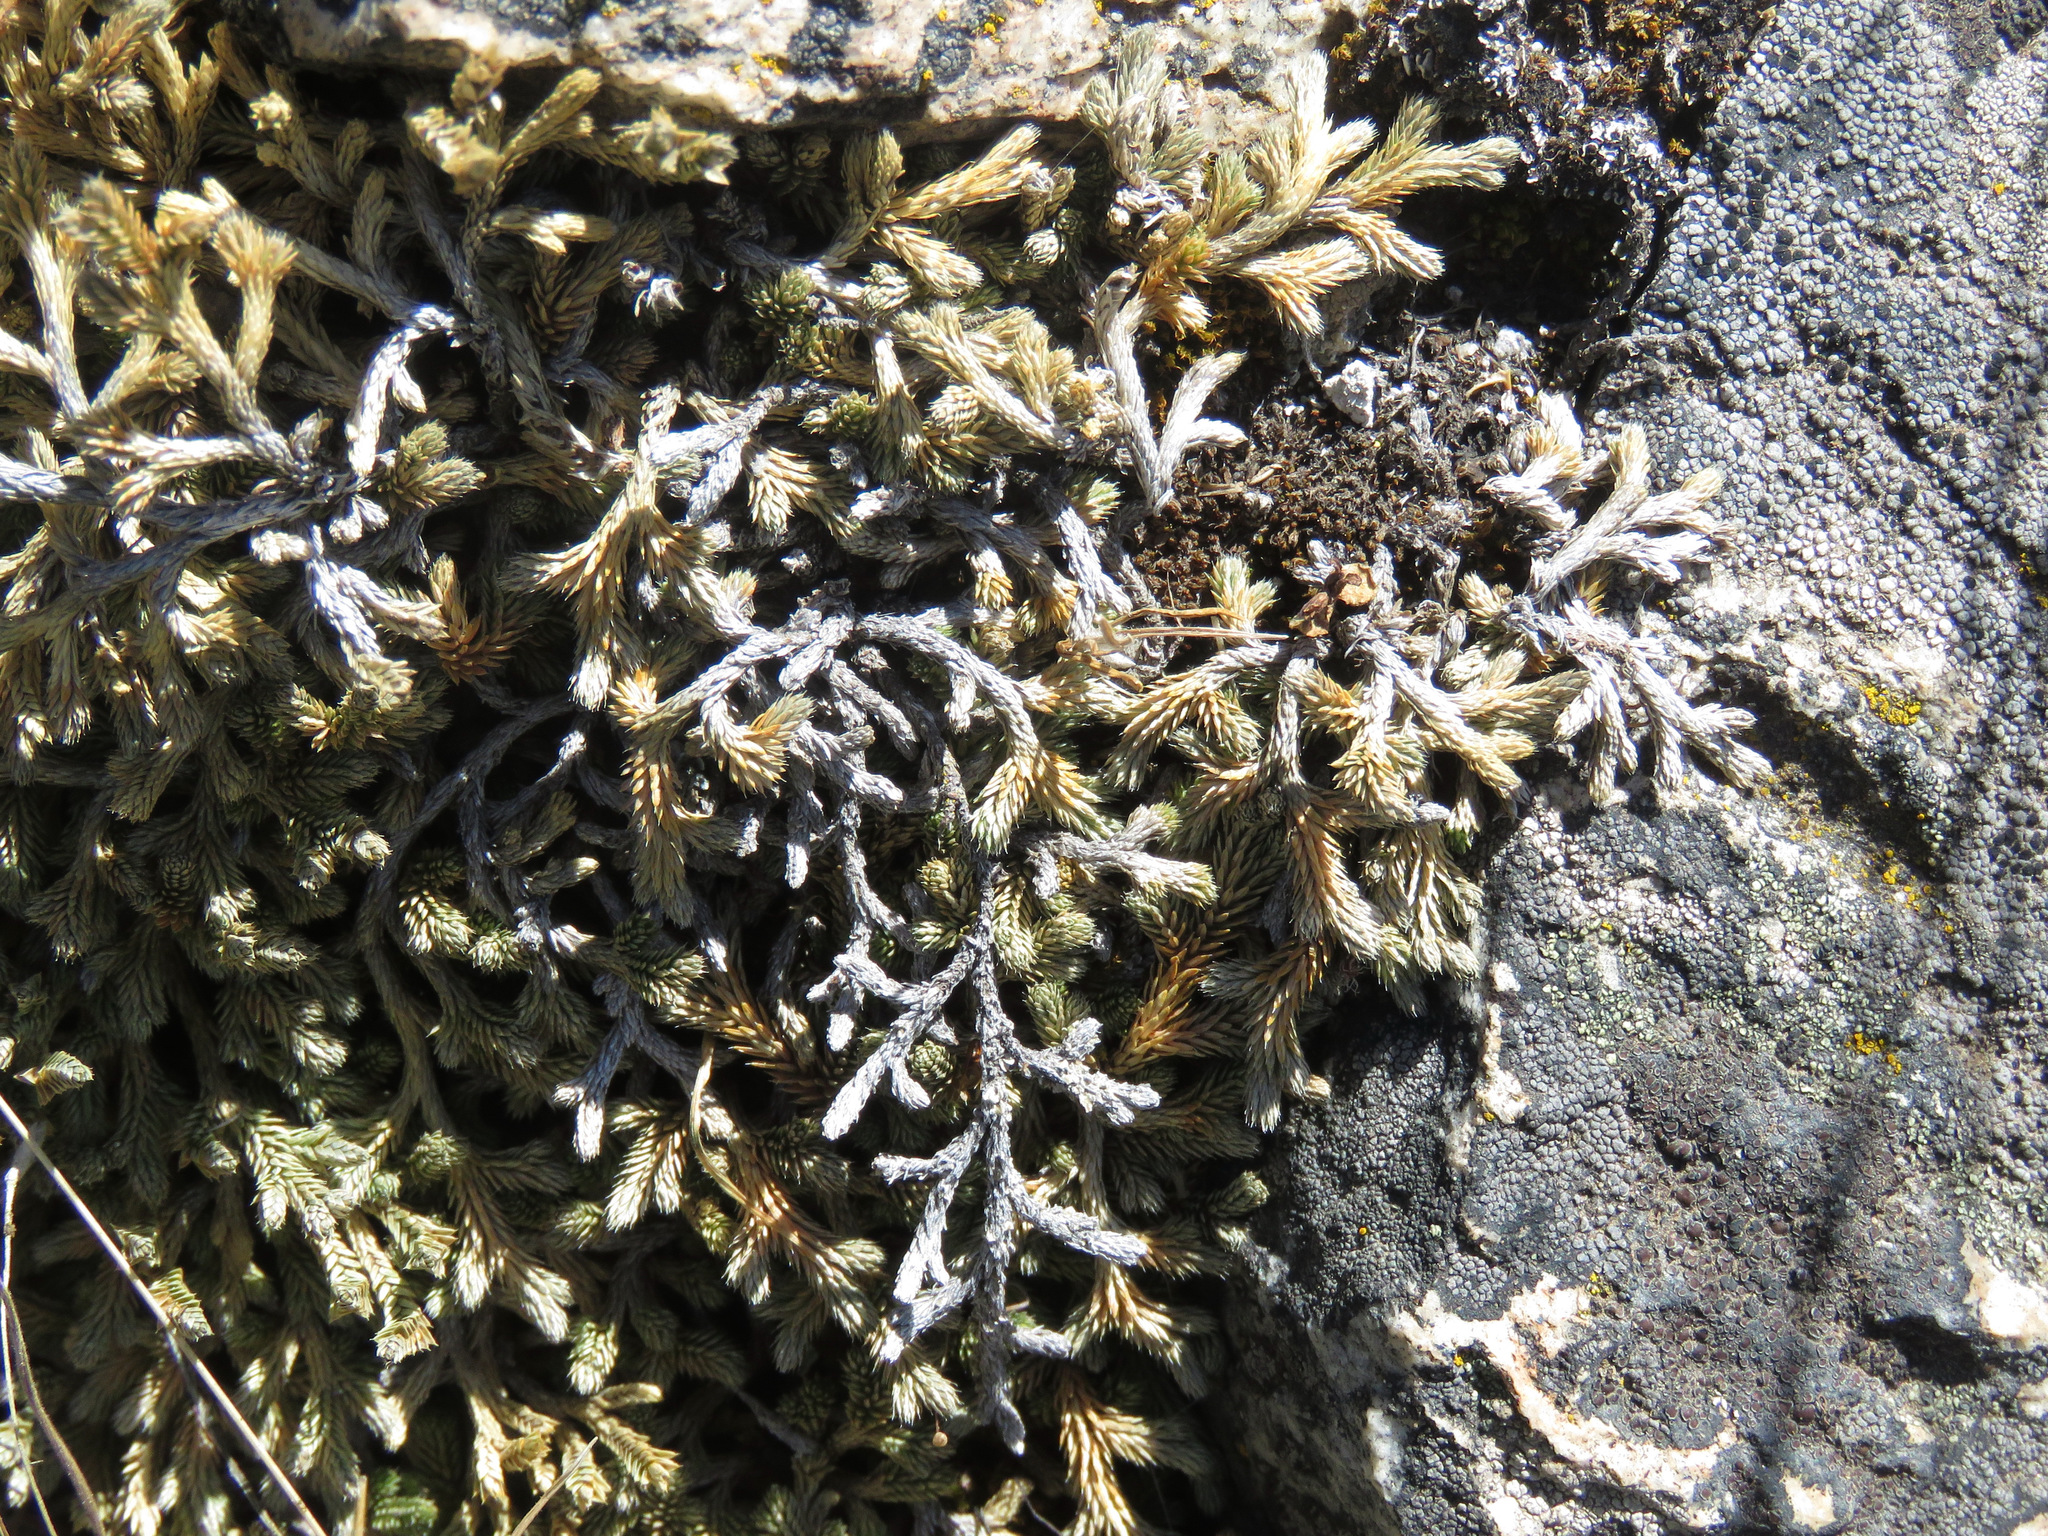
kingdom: Plantae
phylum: Tracheophyta
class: Lycopodiopsida
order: Selaginellales
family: Selaginellaceae
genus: Selaginella
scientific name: Selaginella wallacei
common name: Wallace's selaginella
